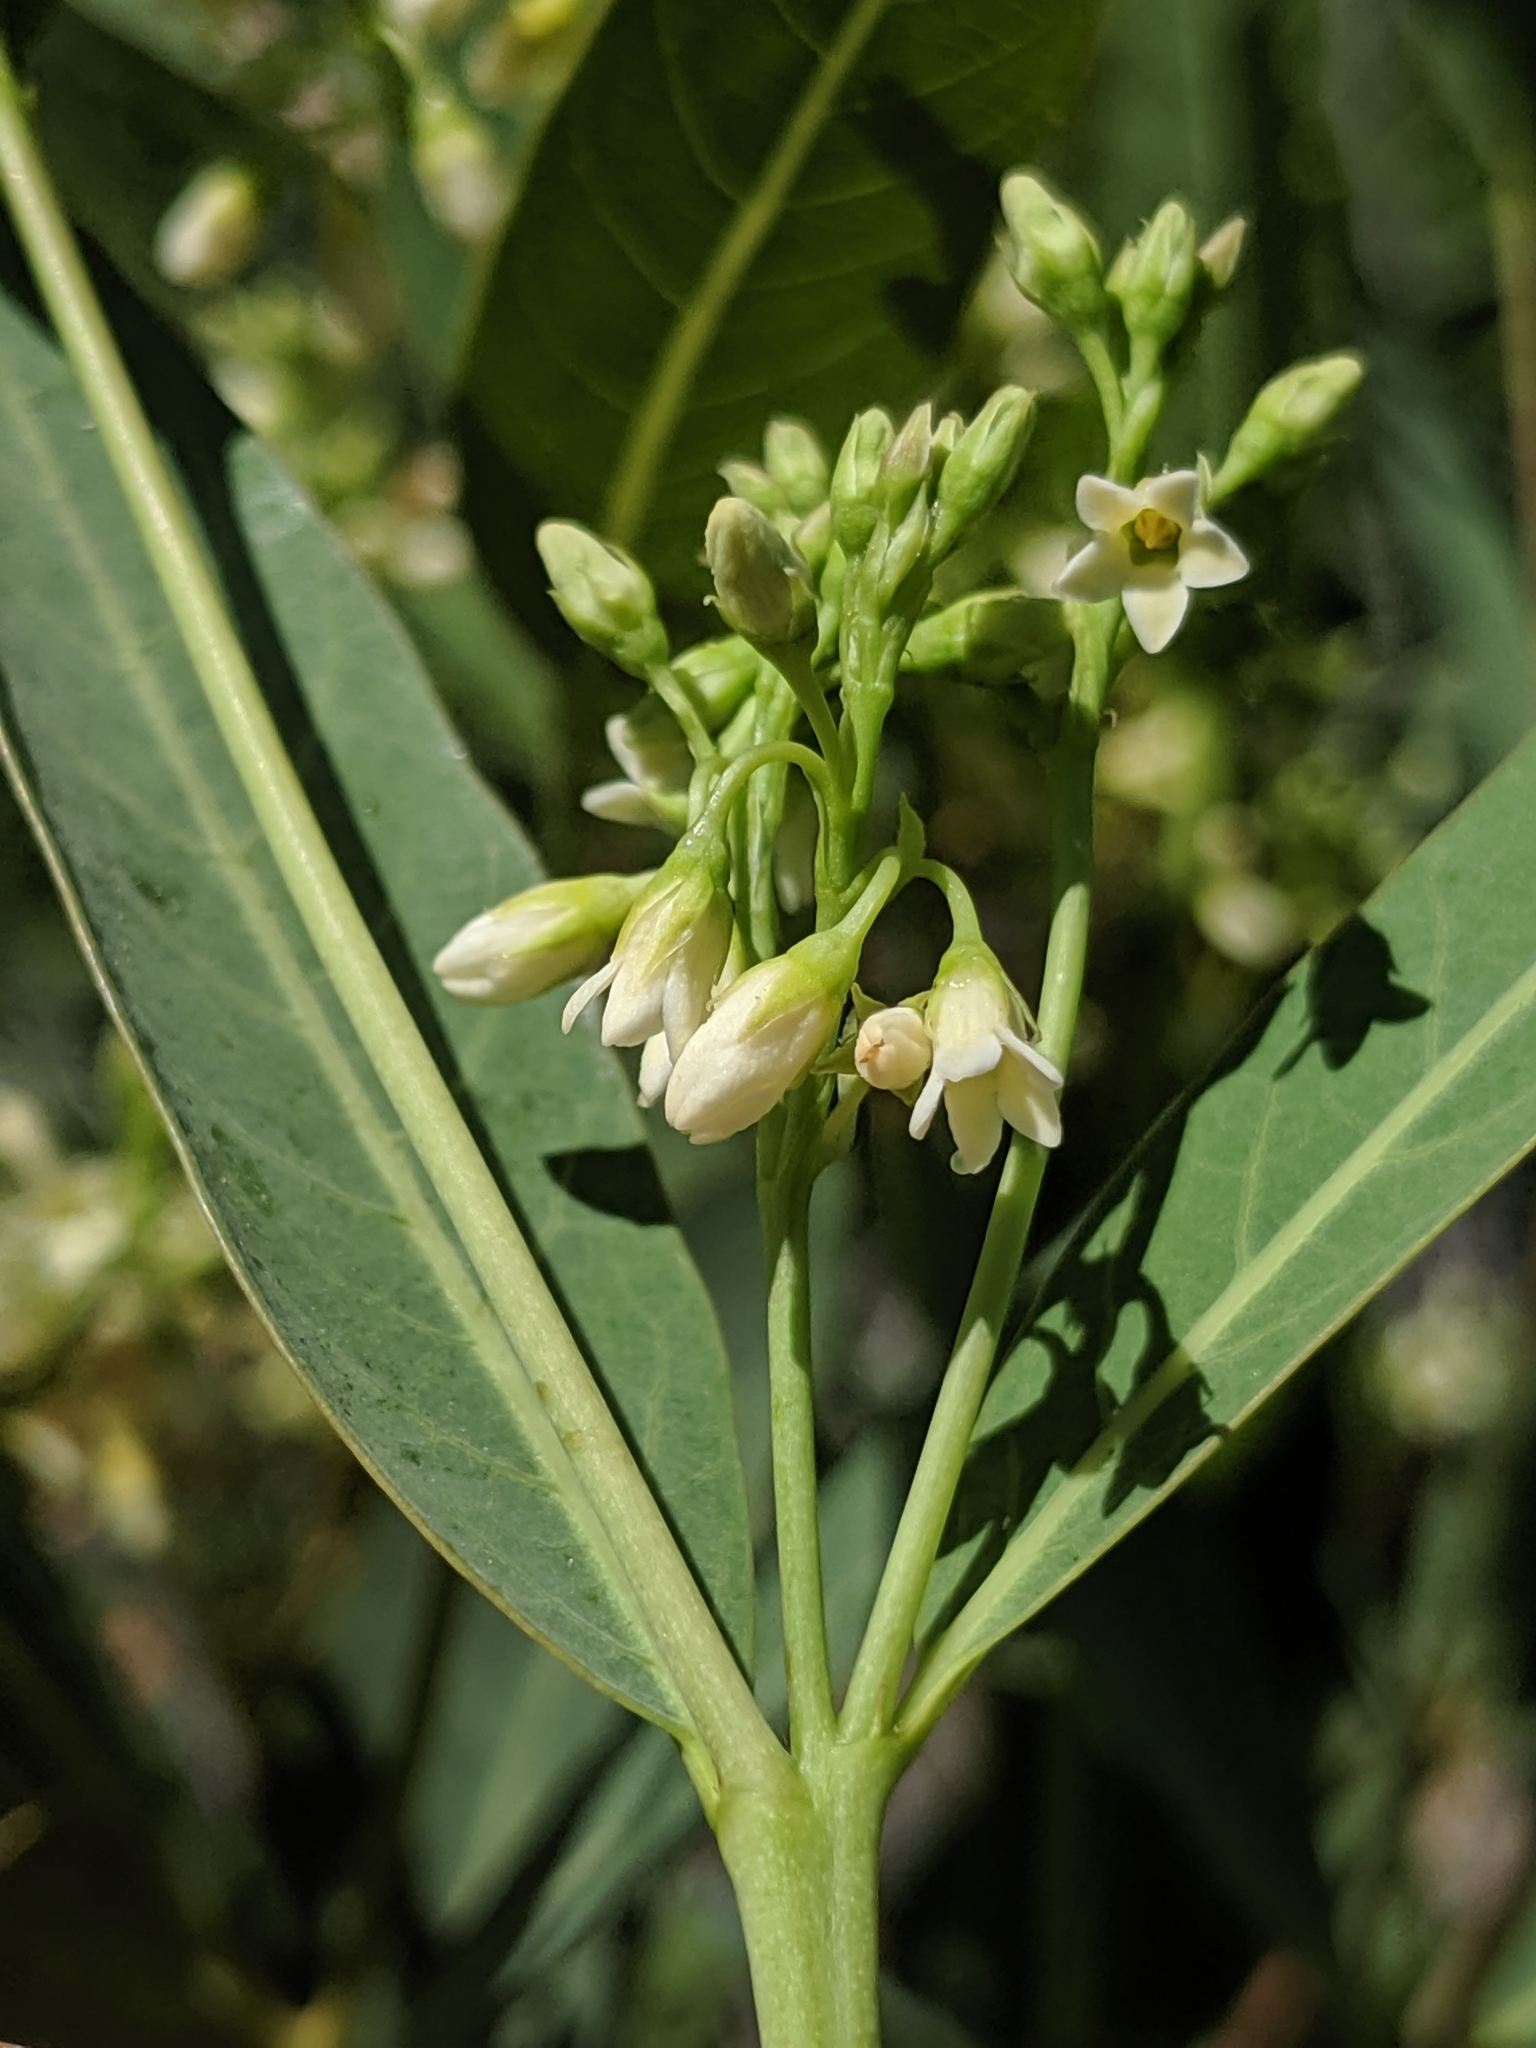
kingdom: Plantae
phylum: Tracheophyta
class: Magnoliopsida
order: Gentianales
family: Apocynaceae
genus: Apocynum
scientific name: Apocynum cannabinum
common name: Hemp dogbane
